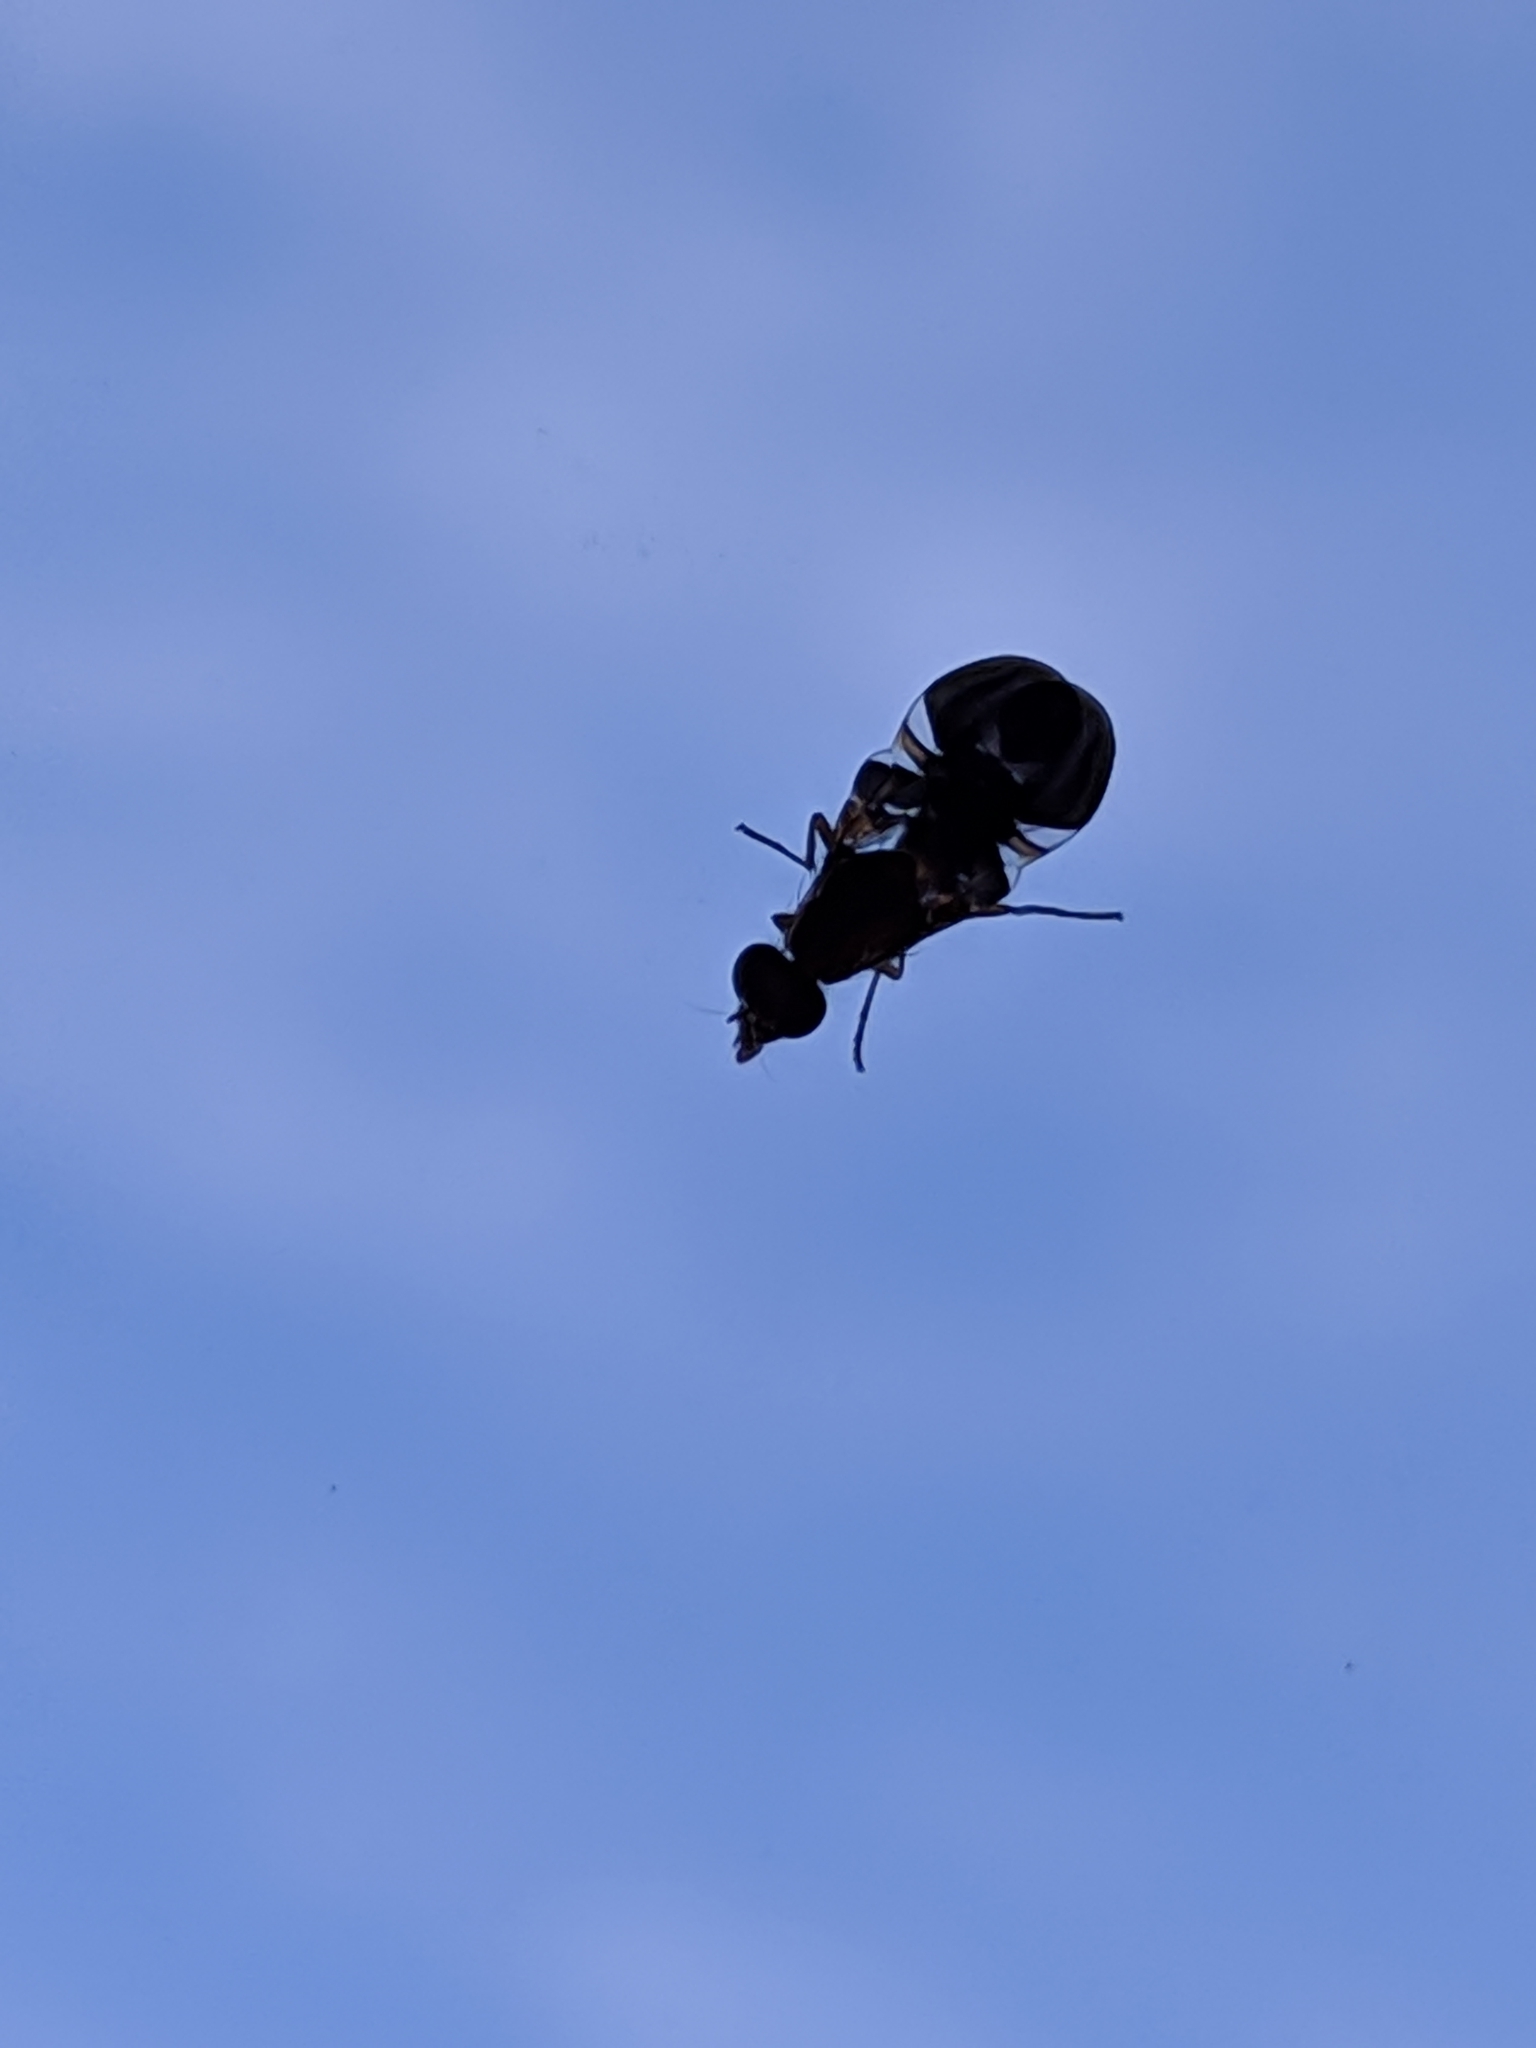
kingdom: Animalia
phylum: Arthropoda
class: Insecta
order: Diptera
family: Ulidiidae
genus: Delphinia
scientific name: Delphinia picta
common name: Common picture-winged fly
